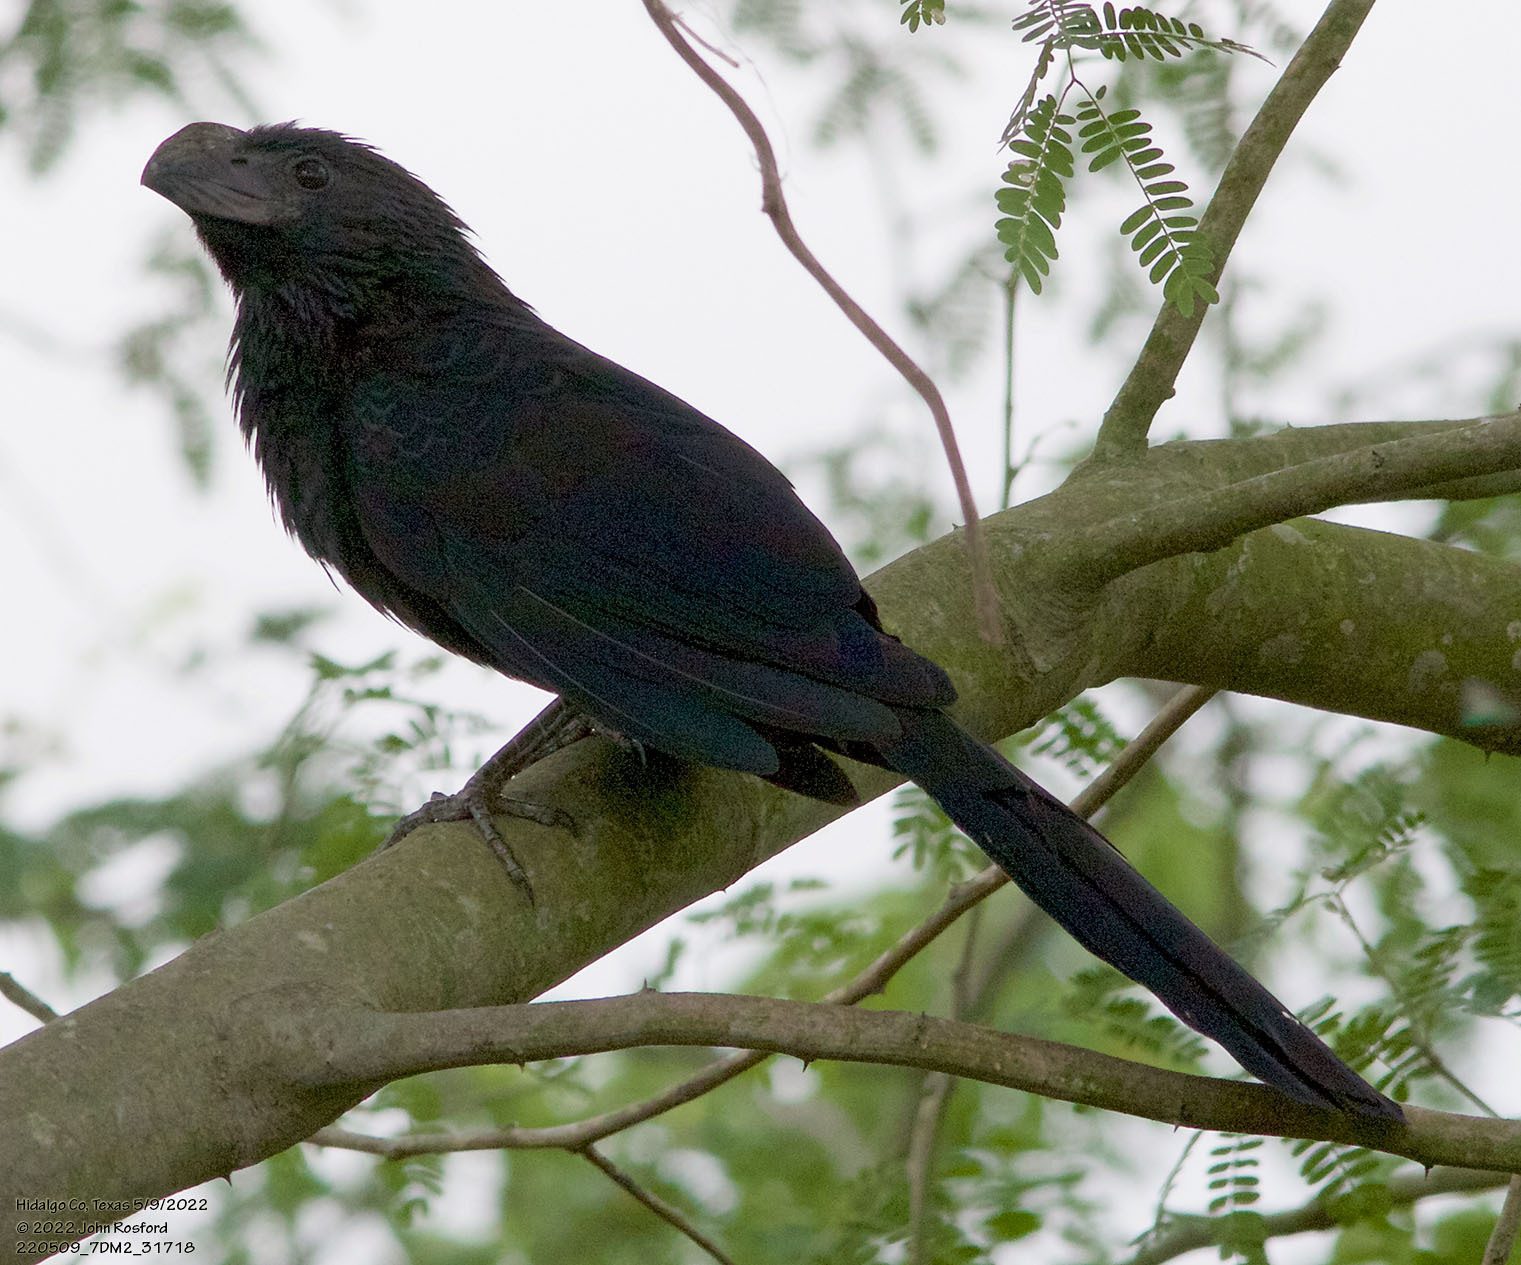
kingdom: Animalia
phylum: Chordata
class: Aves
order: Cuculiformes
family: Cuculidae
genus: Crotophaga
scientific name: Crotophaga sulcirostris
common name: Groove-billed ani
